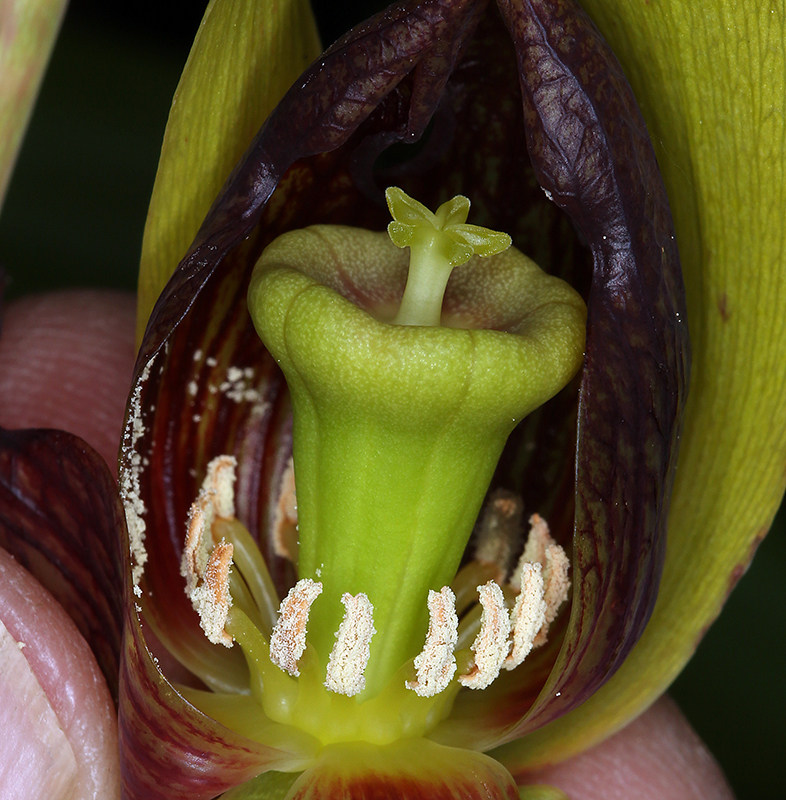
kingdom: Plantae
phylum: Tracheophyta
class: Magnoliopsida
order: Ericales
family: Sarraceniaceae
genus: Darlingtonia
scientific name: Darlingtonia californica
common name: California pitcher plant
